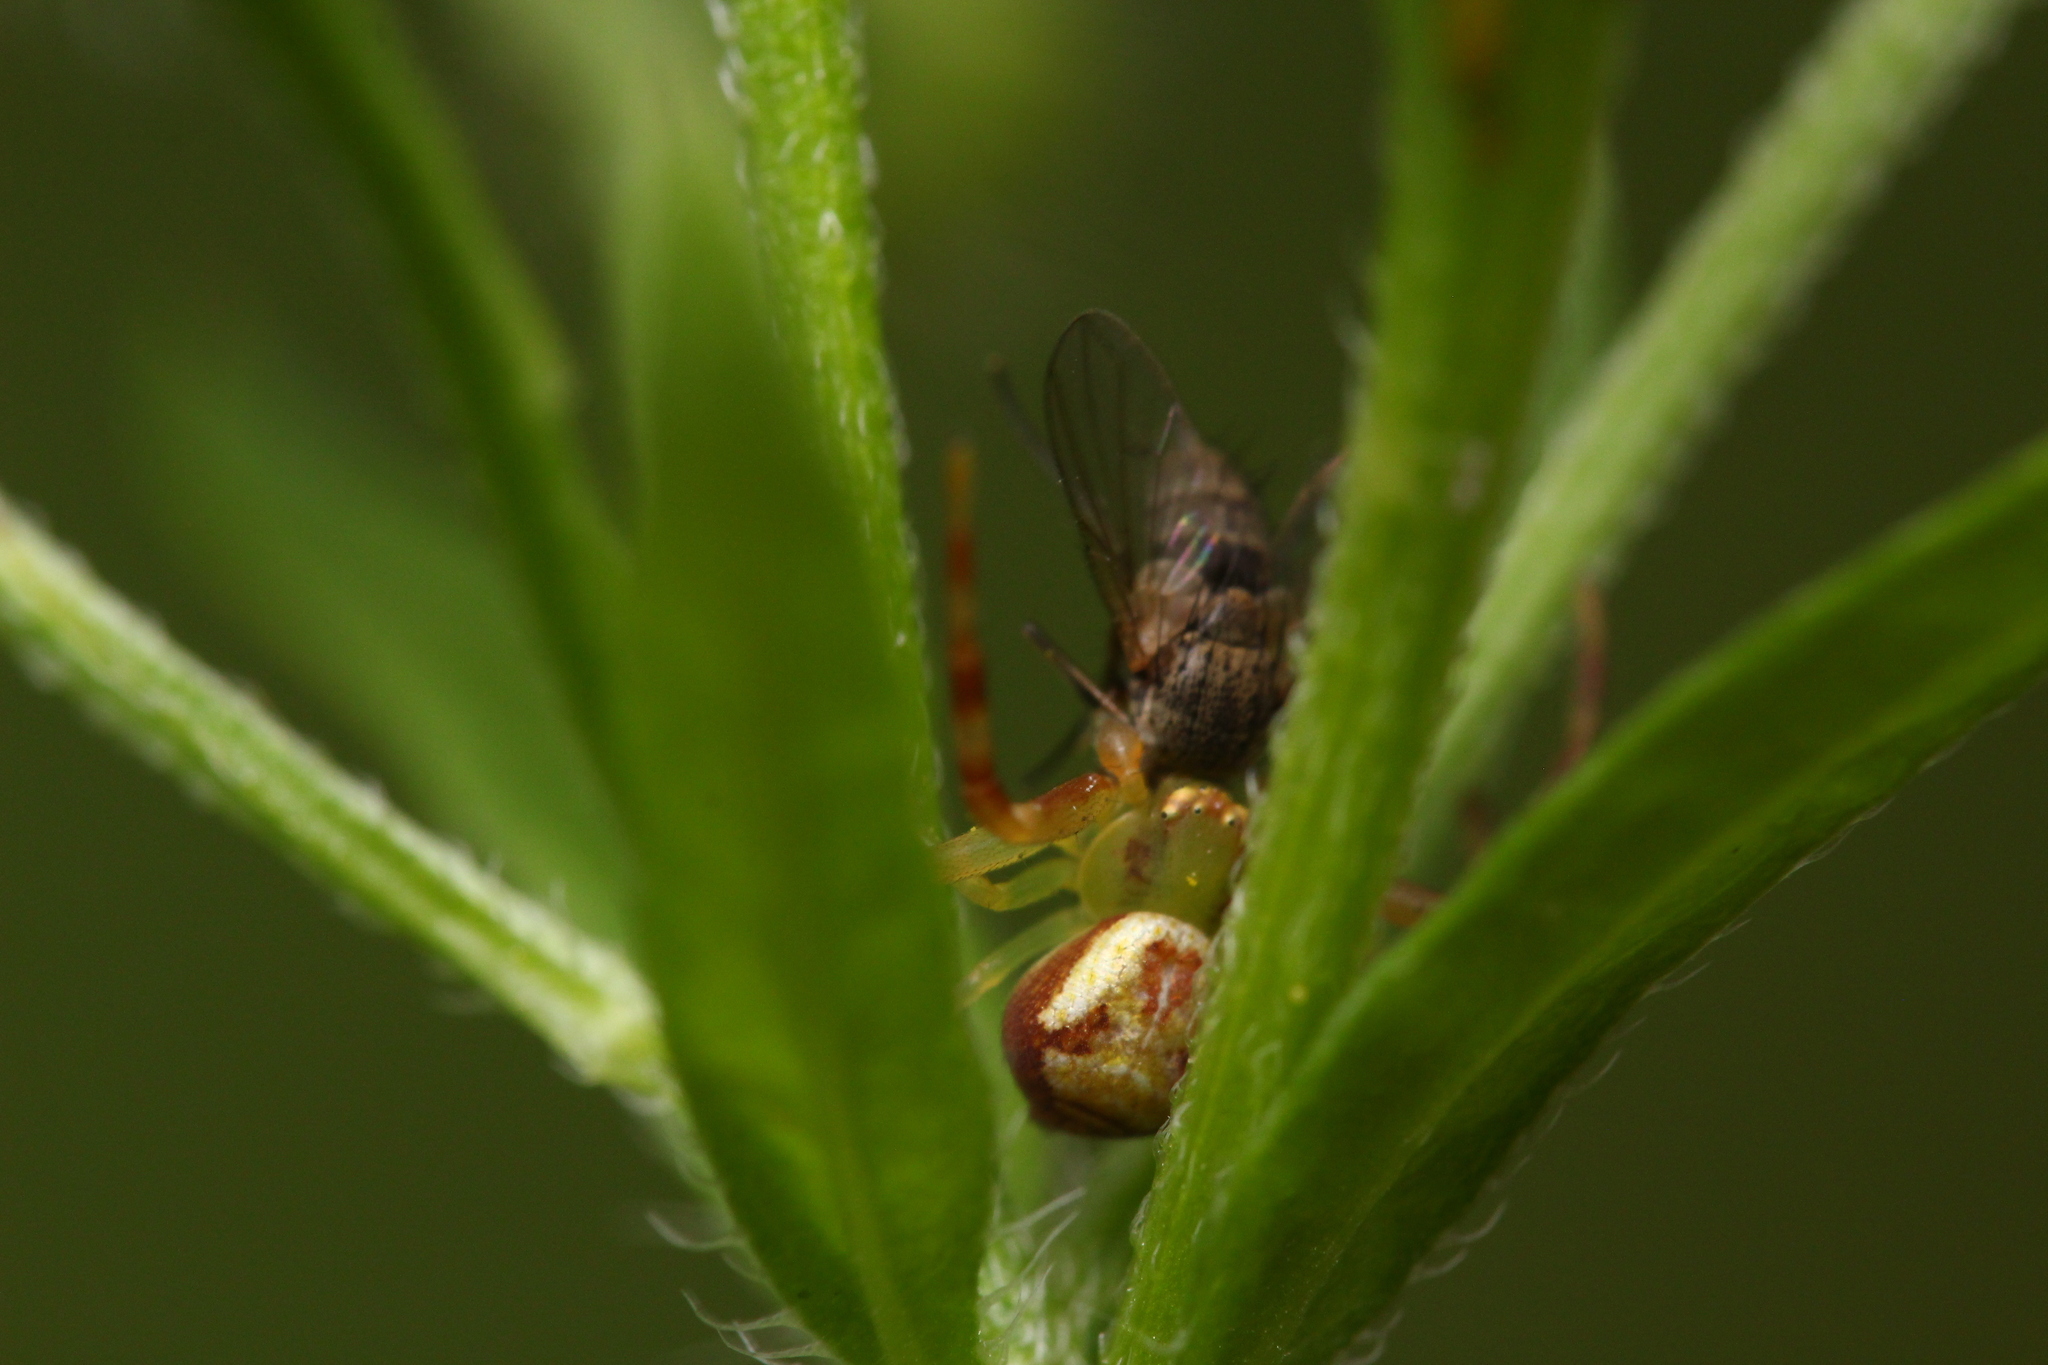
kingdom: Animalia
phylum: Arthropoda
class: Arachnida
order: Araneae
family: Thomisidae
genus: Ebrechtella
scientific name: Ebrechtella tricuspidata
